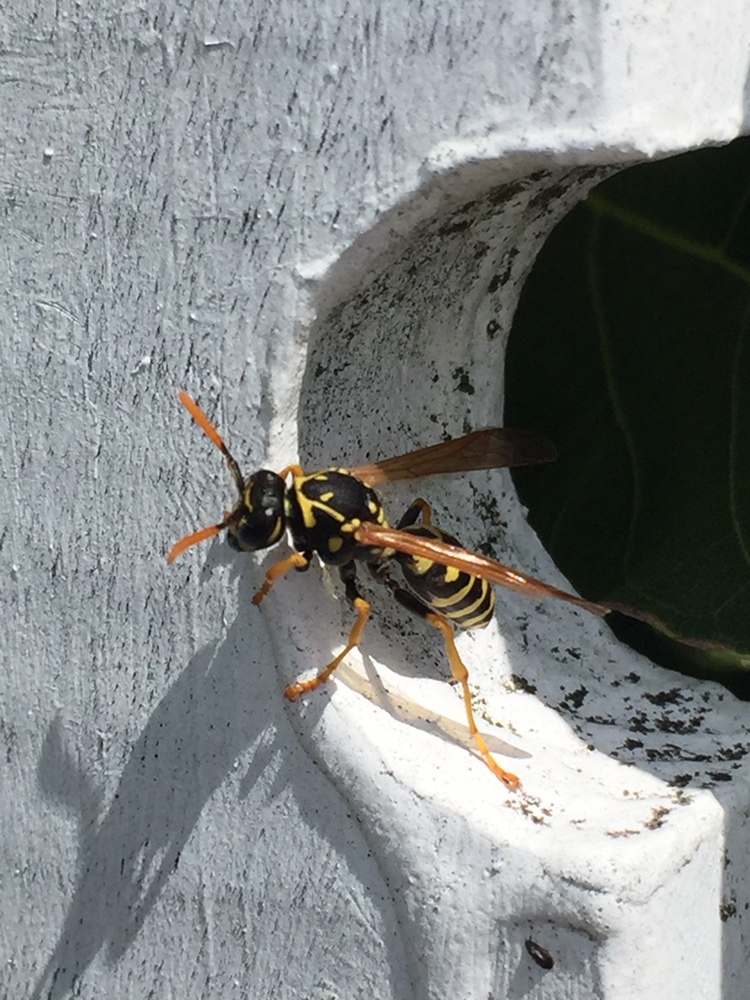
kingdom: Animalia
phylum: Arthropoda
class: Insecta
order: Hymenoptera
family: Eumenidae
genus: Polistes
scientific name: Polistes dominula
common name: Paper wasp
